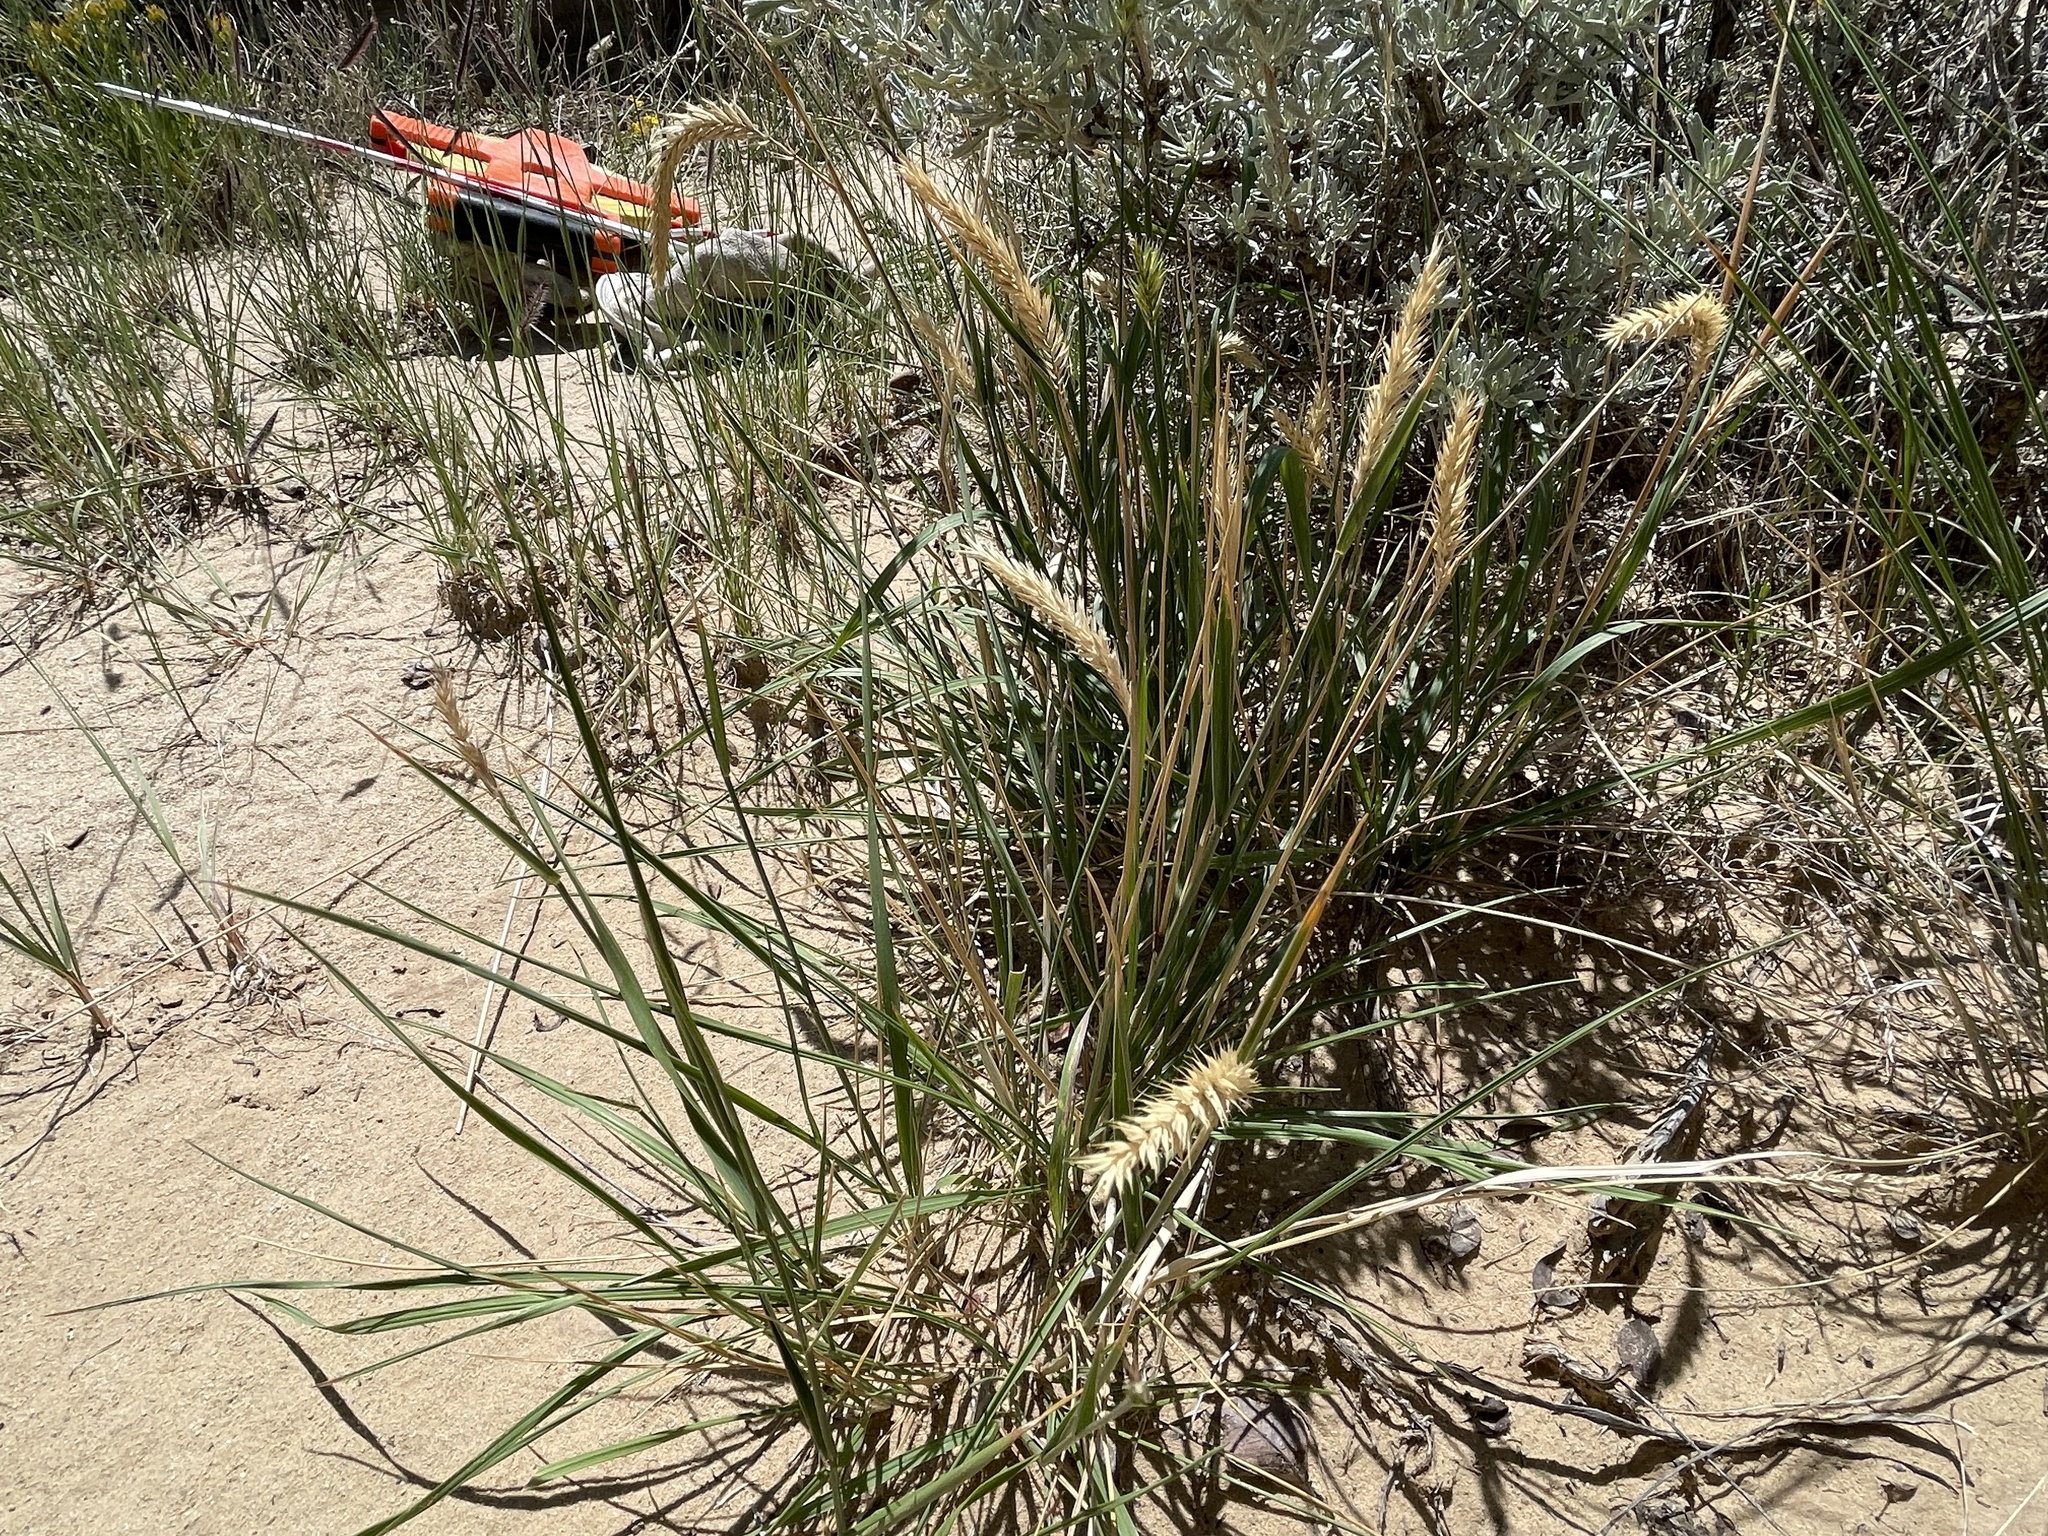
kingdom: Plantae
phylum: Tracheophyta
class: Liliopsida
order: Poales
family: Poaceae
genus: Agropyron
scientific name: Agropyron cristatum
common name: Crested wheatgrass
